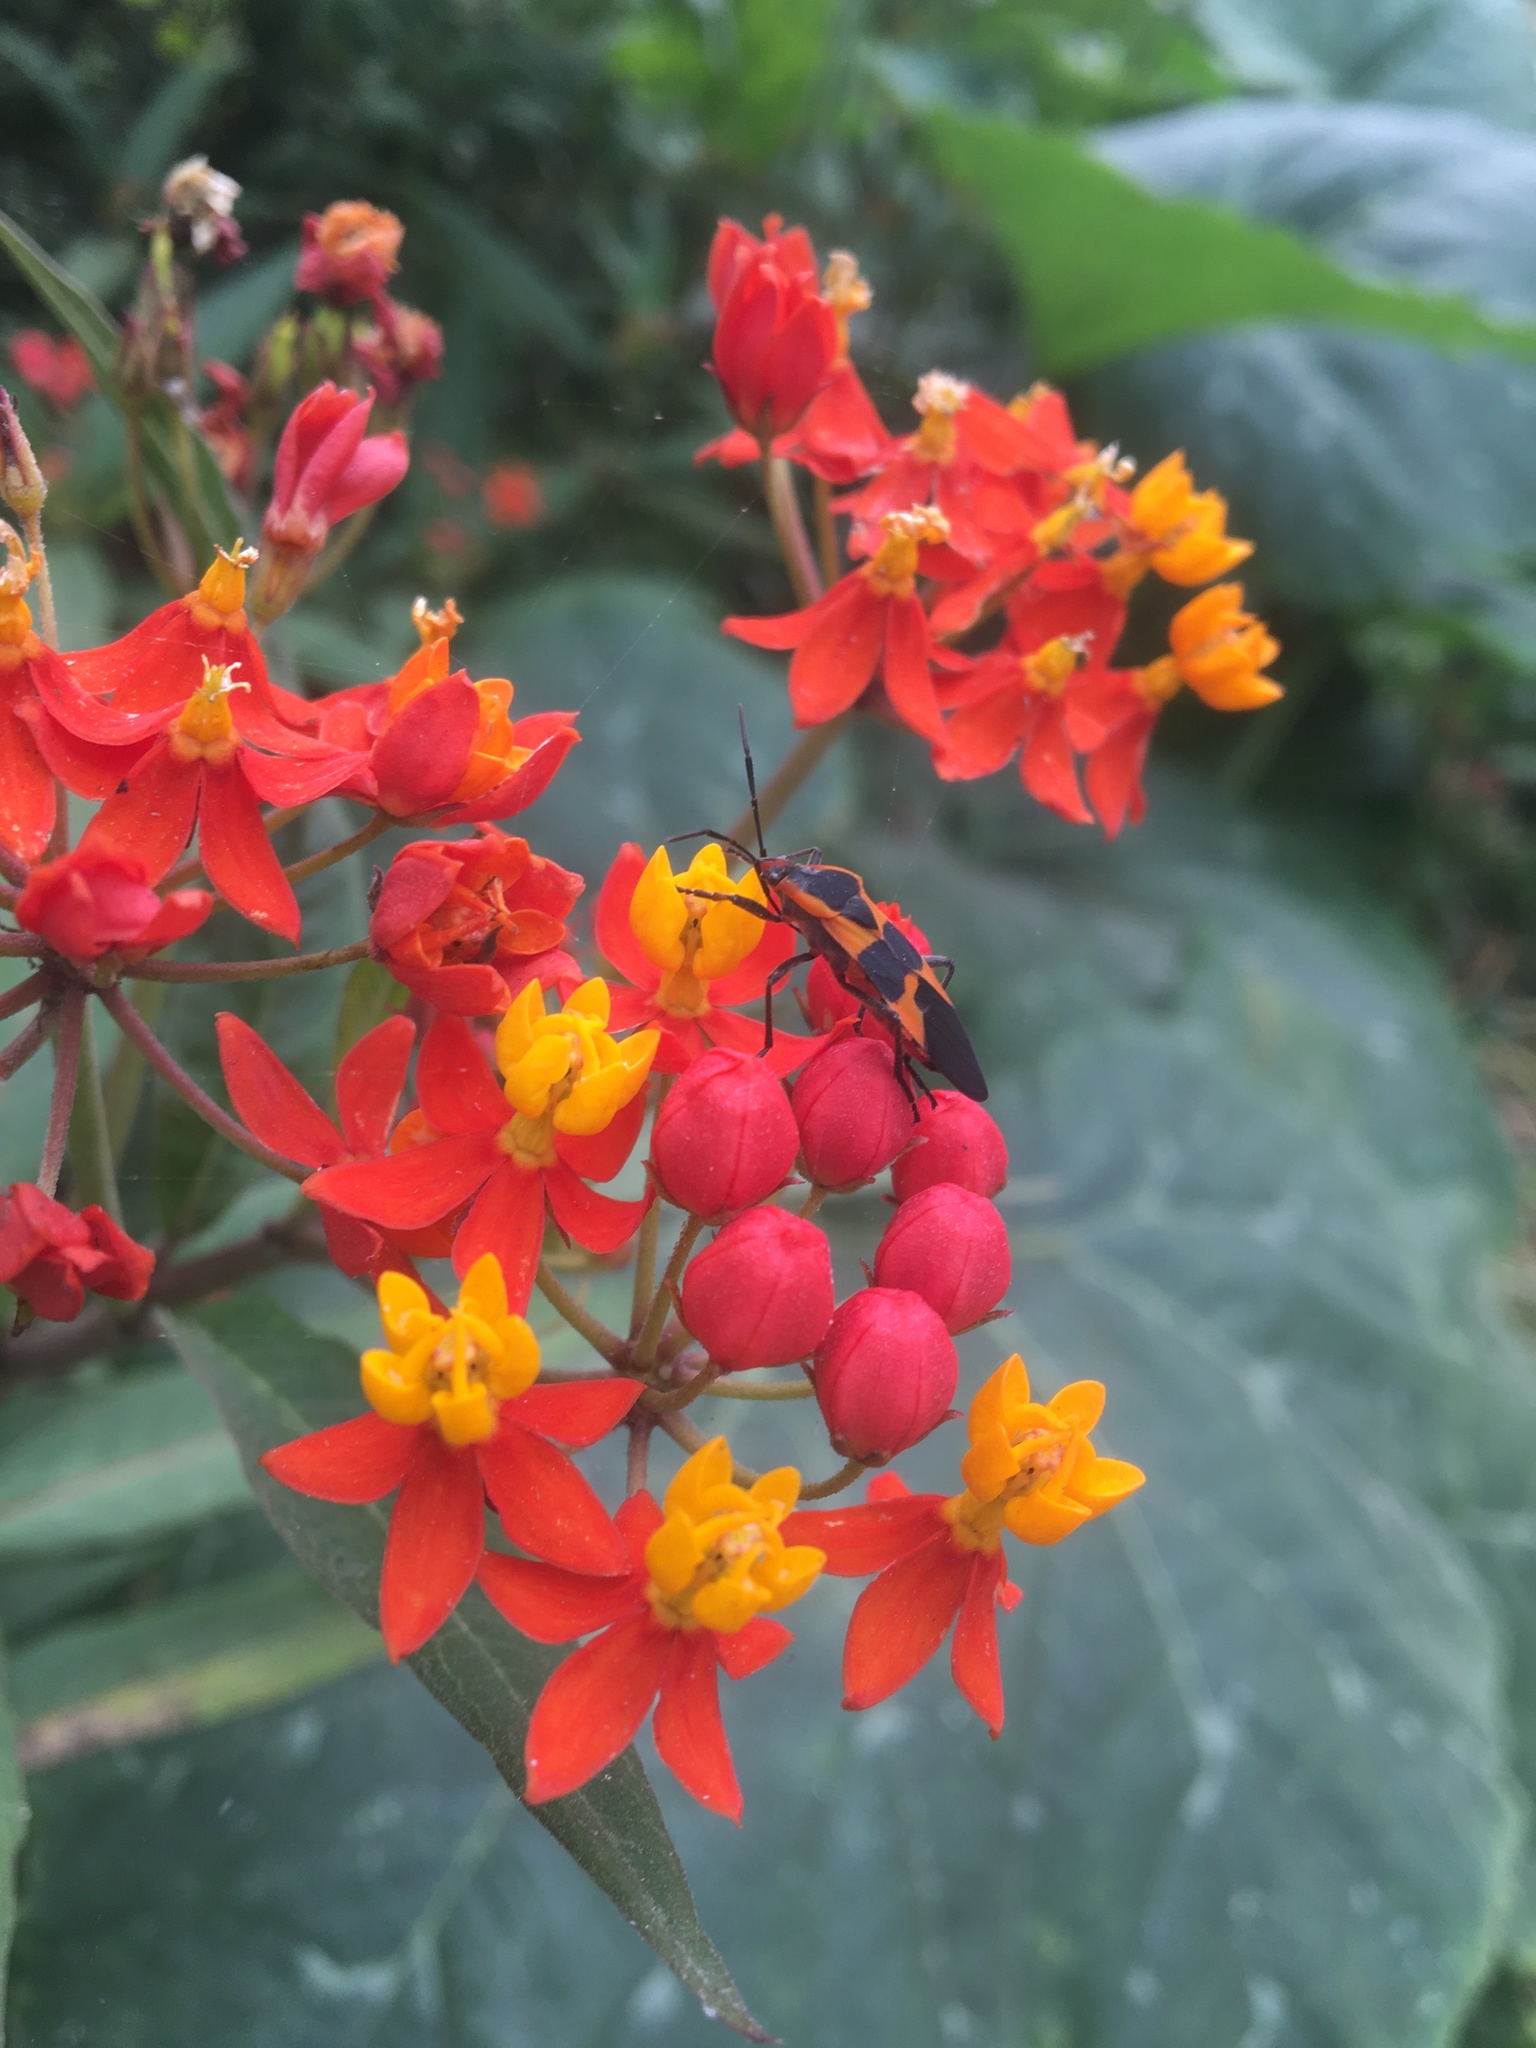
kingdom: Animalia
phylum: Arthropoda
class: Insecta
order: Hemiptera
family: Lygaeidae
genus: Oncopeltus
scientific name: Oncopeltus fasciatus
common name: Large milkweed bug
